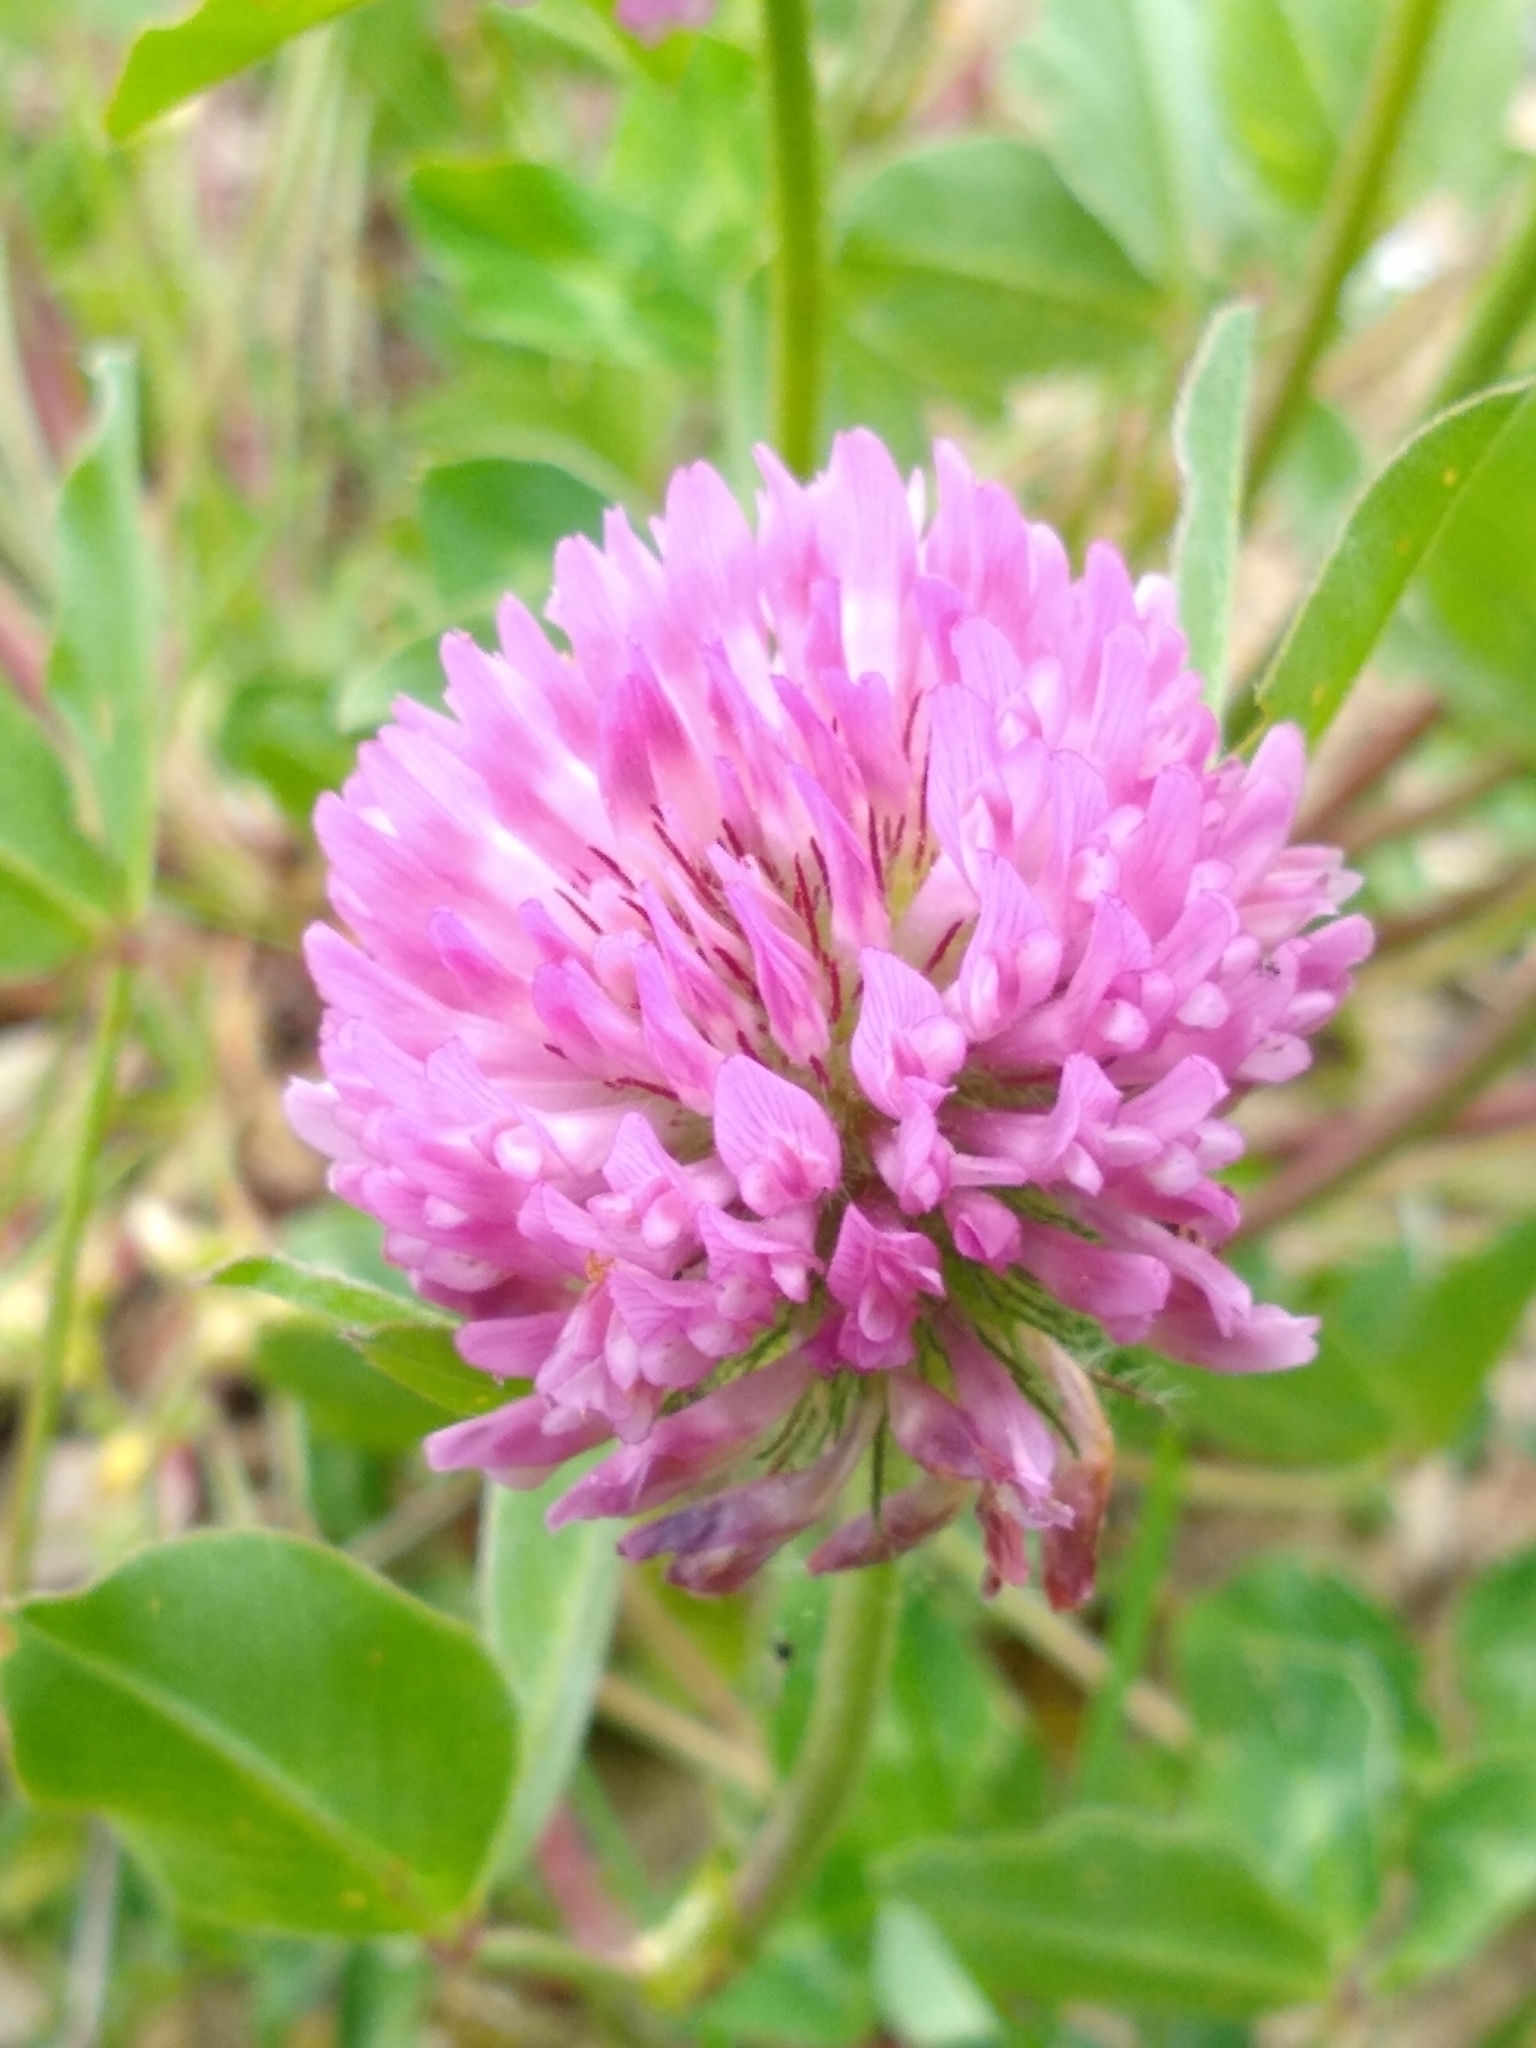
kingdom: Plantae
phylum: Tracheophyta
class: Magnoliopsida
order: Fabales
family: Fabaceae
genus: Trifolium
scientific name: Trifolium pratense
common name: Red clover
